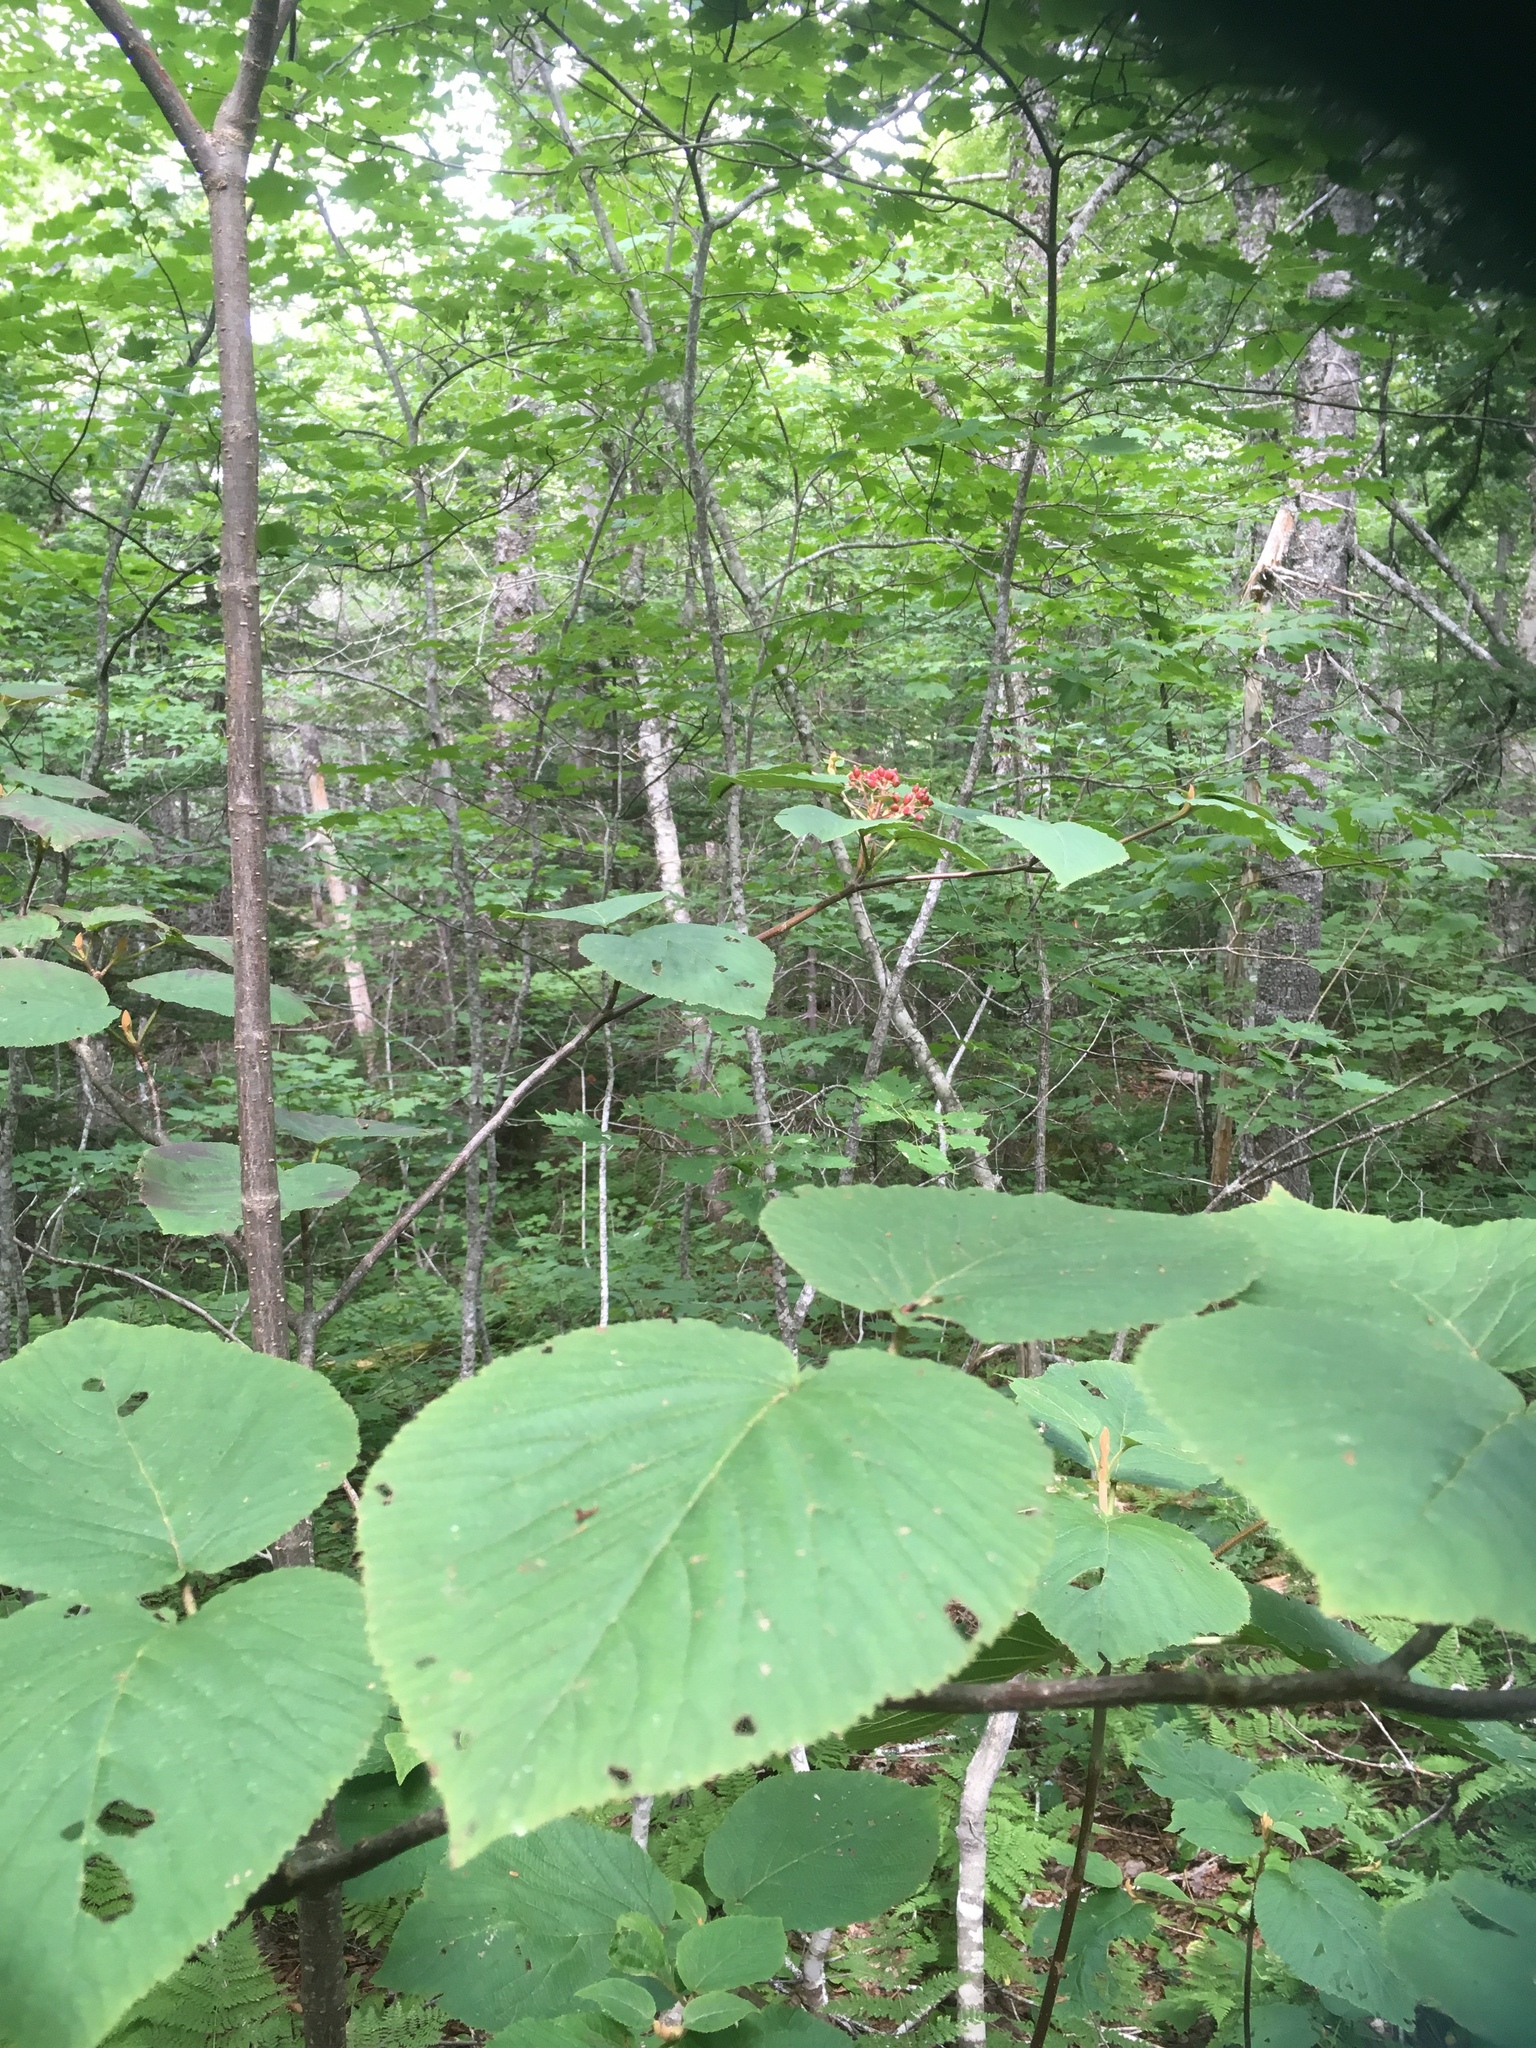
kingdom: Plantae
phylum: Tracheophyta
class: Magnoliopsida
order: Dipsacales
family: Viburnaceae
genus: Viburnum
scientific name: Viburnum lantanoides
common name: Hobblebush
